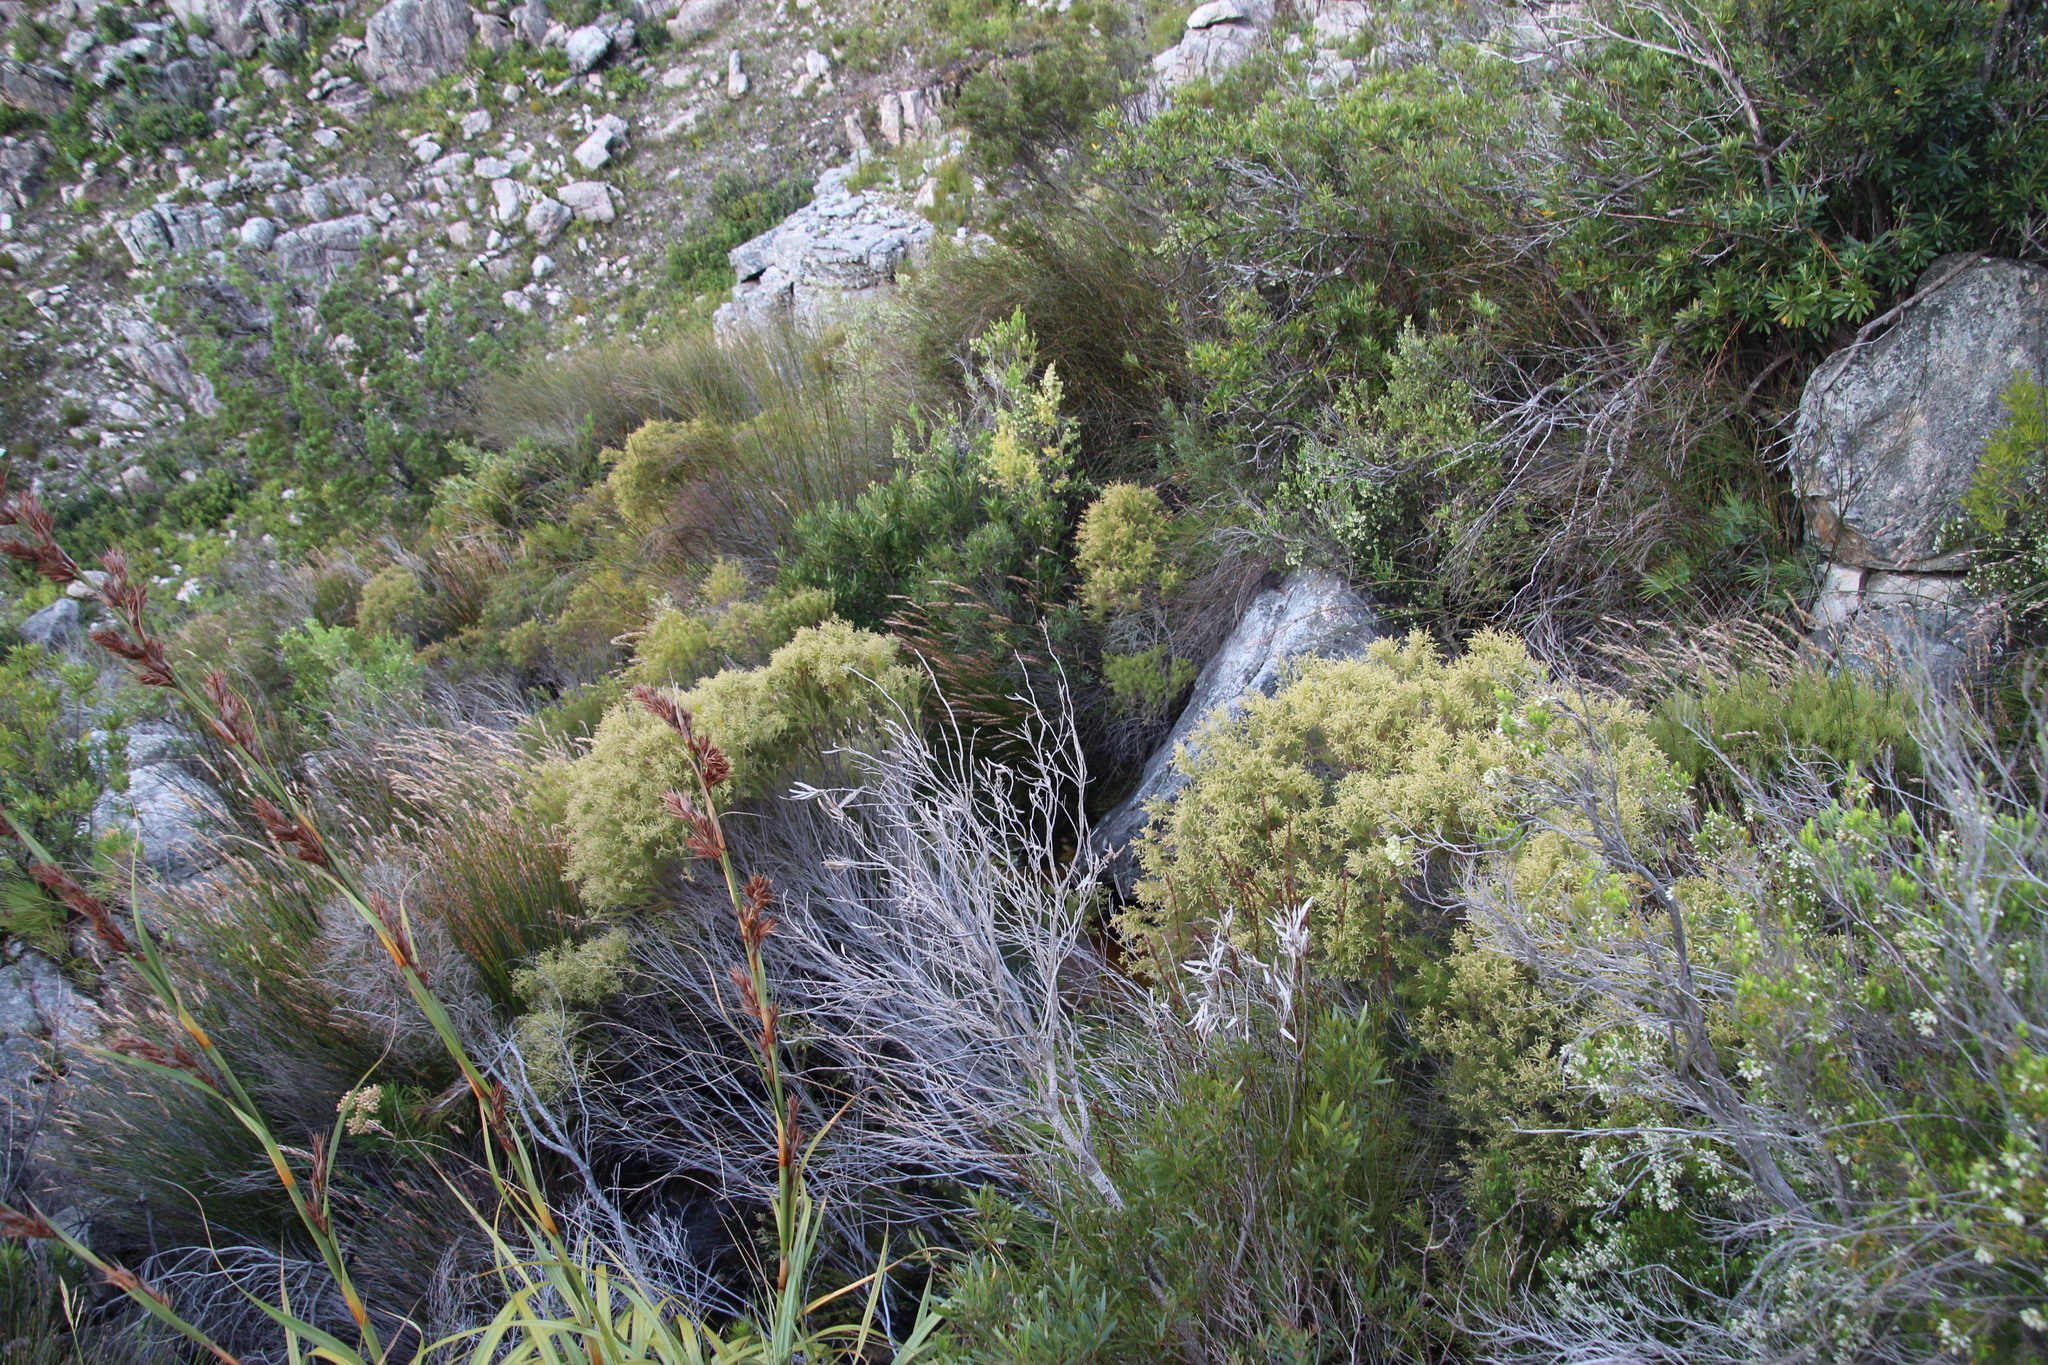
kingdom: Plantae
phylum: Tracheophyta
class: Magnoliopsida
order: Bruniales
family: Bruniaceae
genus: Brunia
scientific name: Brunia africana
